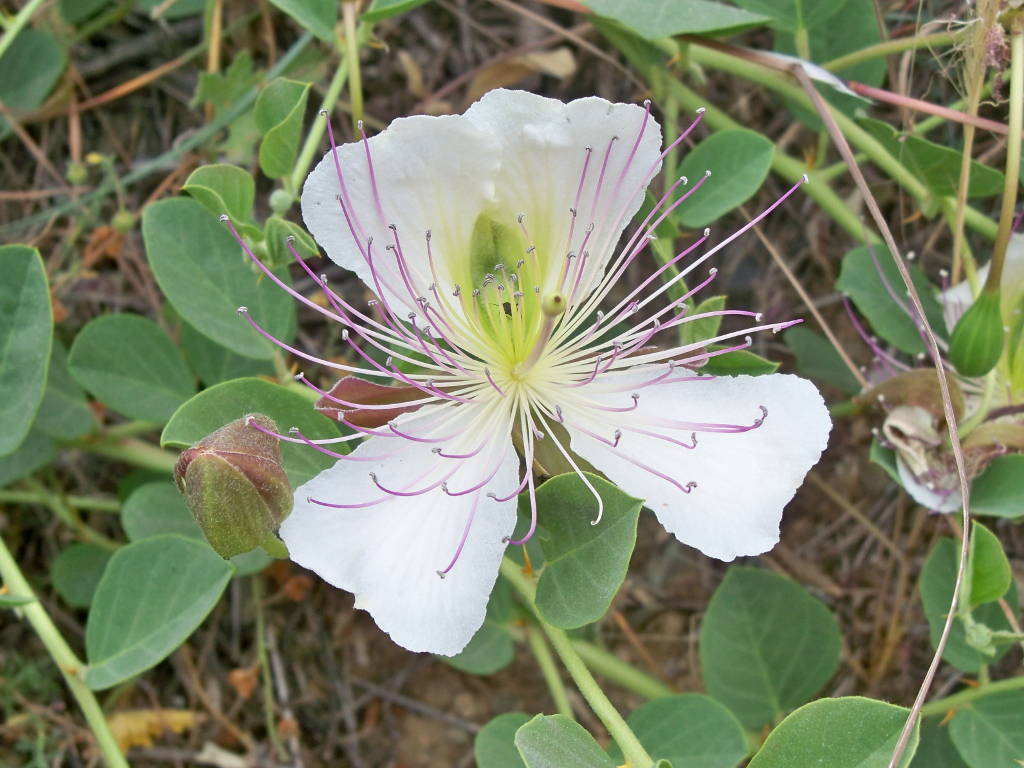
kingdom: Plantae
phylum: Tracheophyta
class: Magnoliopsida
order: Brassicales
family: Capparaceae
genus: Capparis
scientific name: Capparis spinosa
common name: Caper
